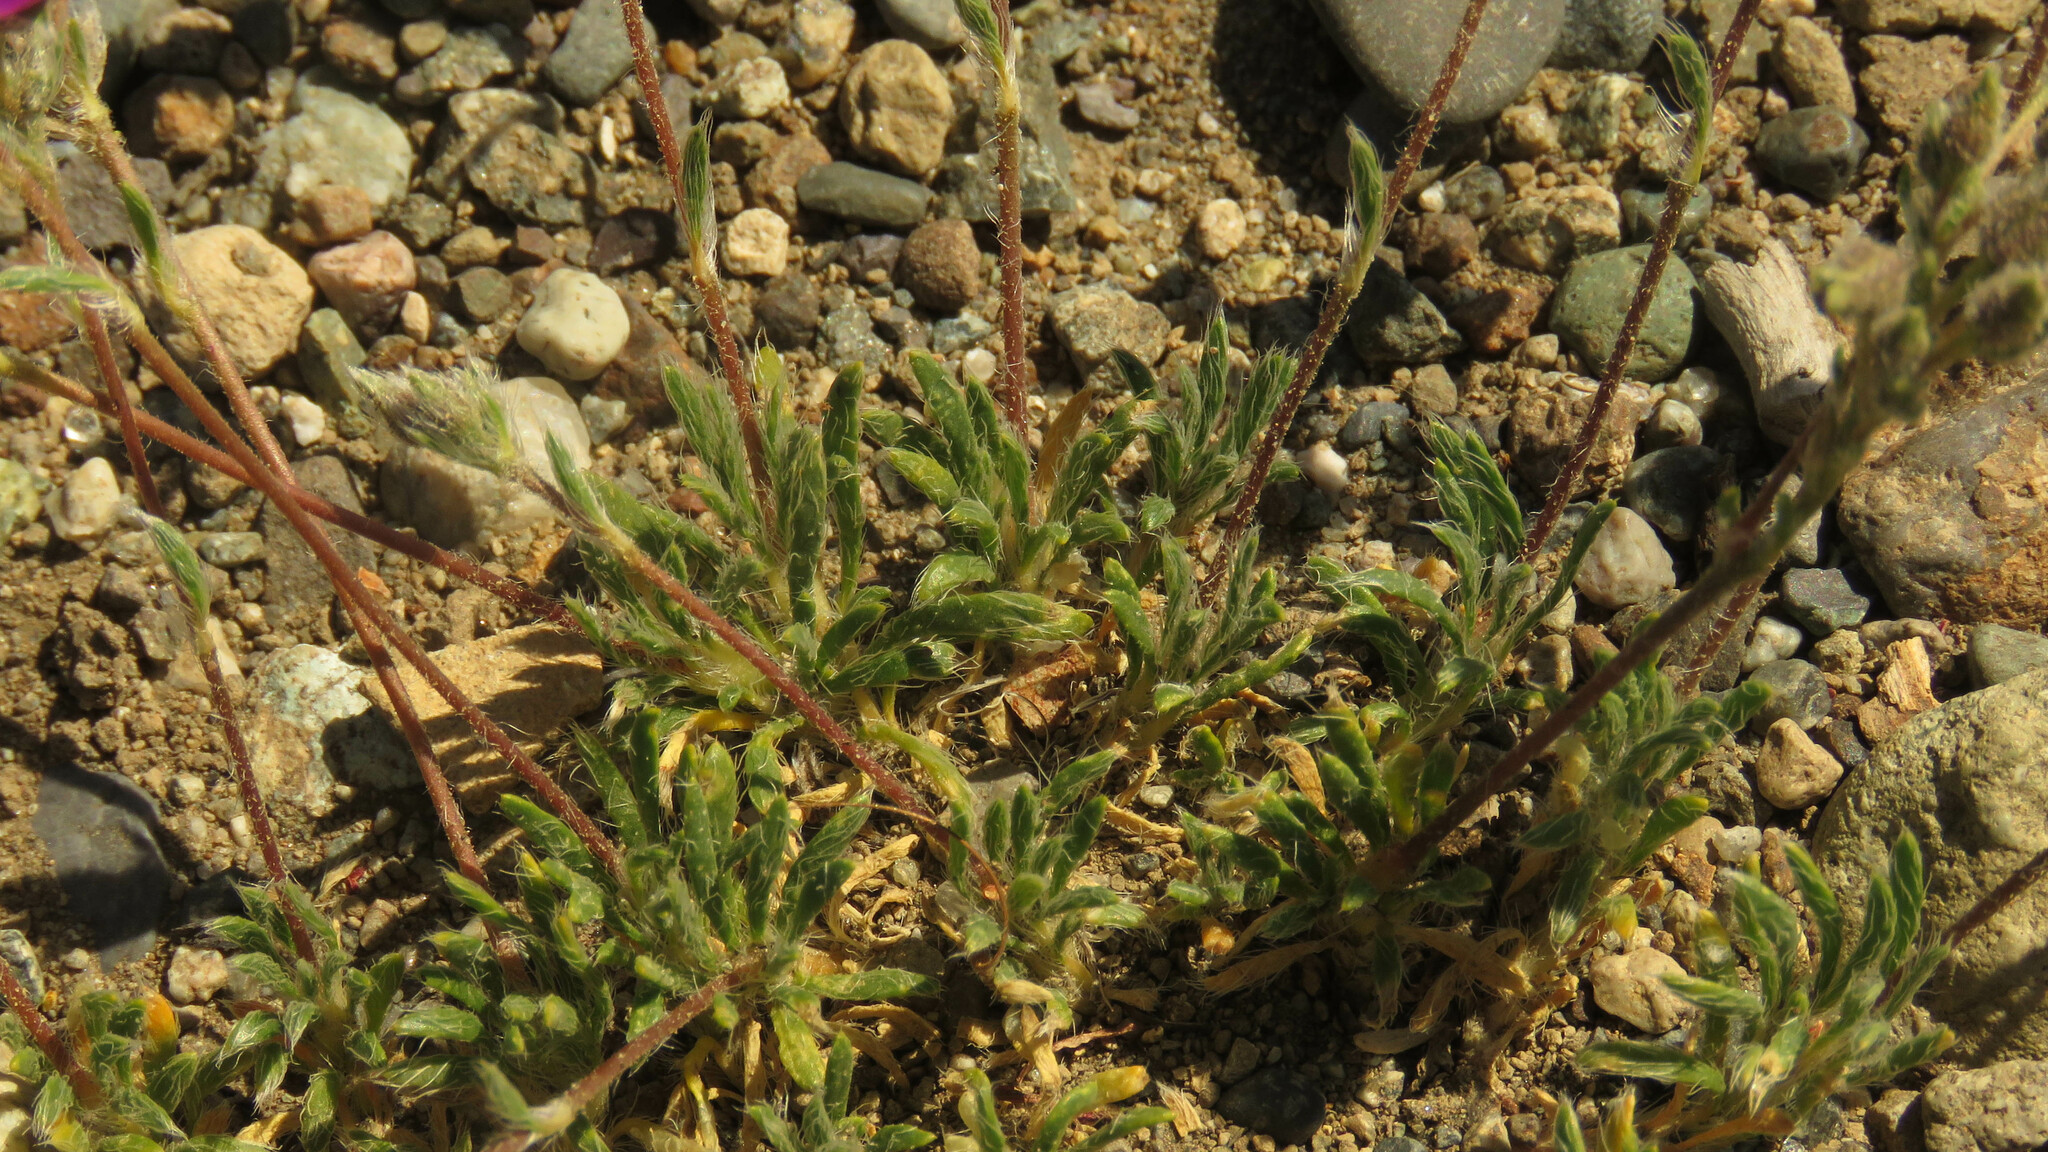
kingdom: Plantae
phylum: Tracheophyta
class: Magnoliopsida
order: Caryophyllales
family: Montiaceae
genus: Montiopsis
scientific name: Montiopsis umbellata
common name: Rock-purslane
